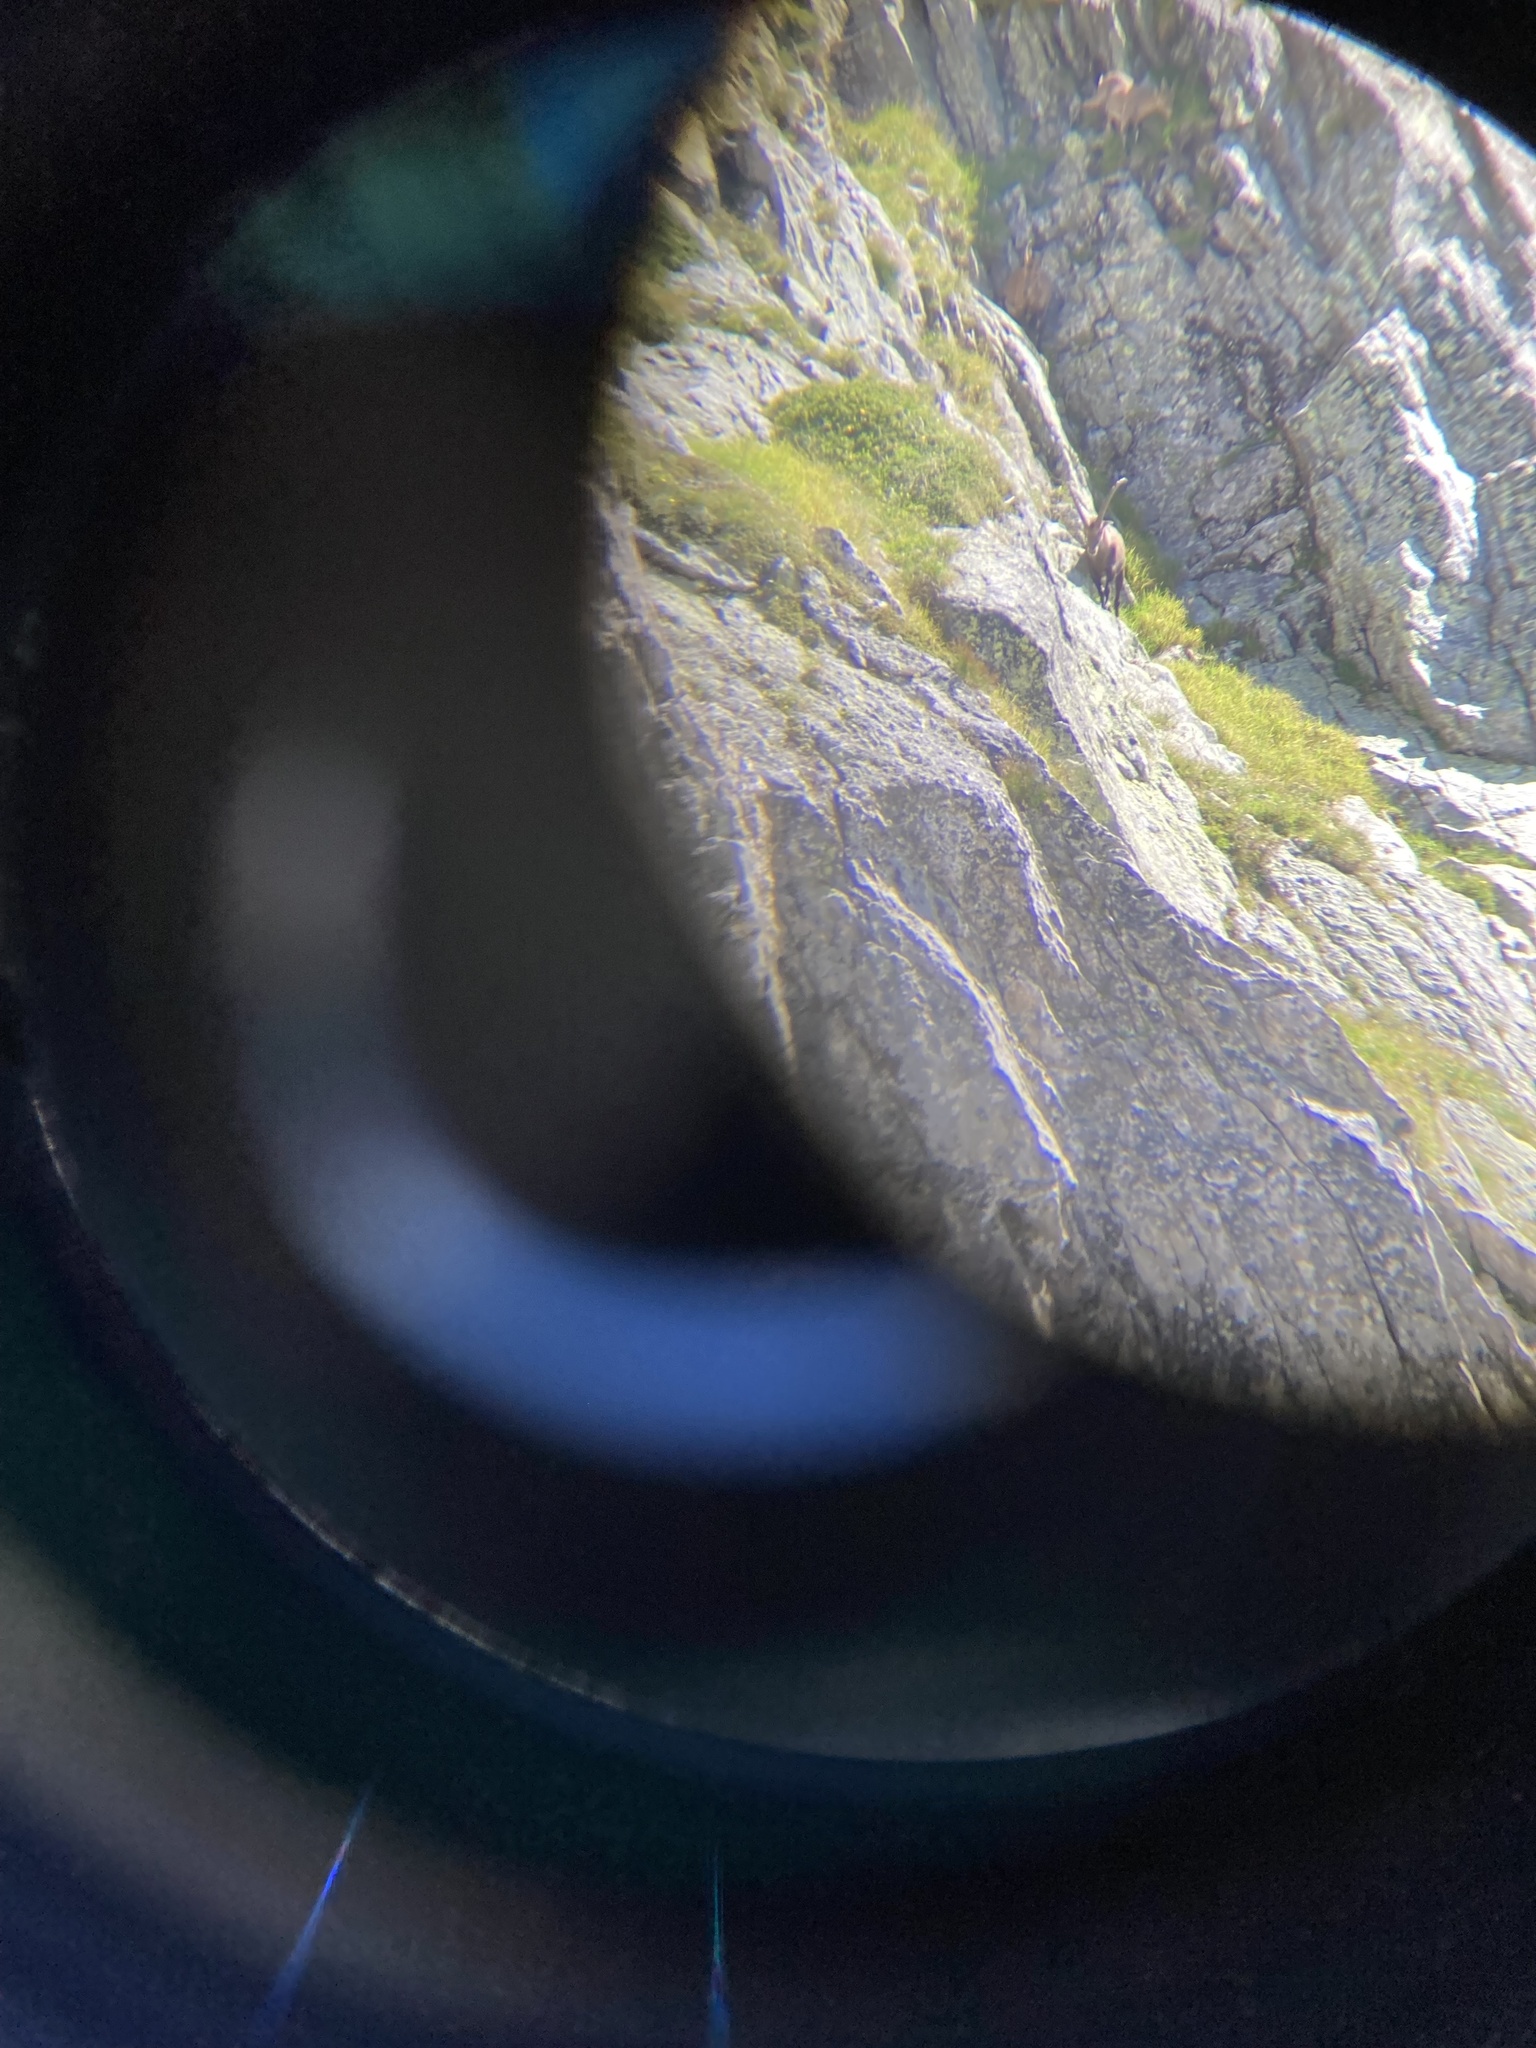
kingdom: Animalia
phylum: Chordata
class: Mammalia
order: Artiodactyla
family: Bovidae
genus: Capra
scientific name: Capra ibex
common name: Alpine ibex
